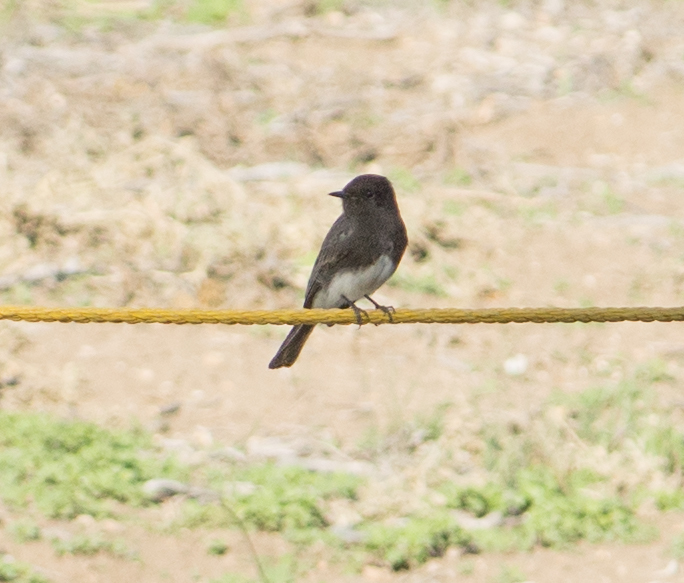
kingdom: Animalia
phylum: Chordata
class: Aves
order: Passeriformes
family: Tyrannidae
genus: Sayornis
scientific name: Sayornis nigricans
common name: Black phoebe
